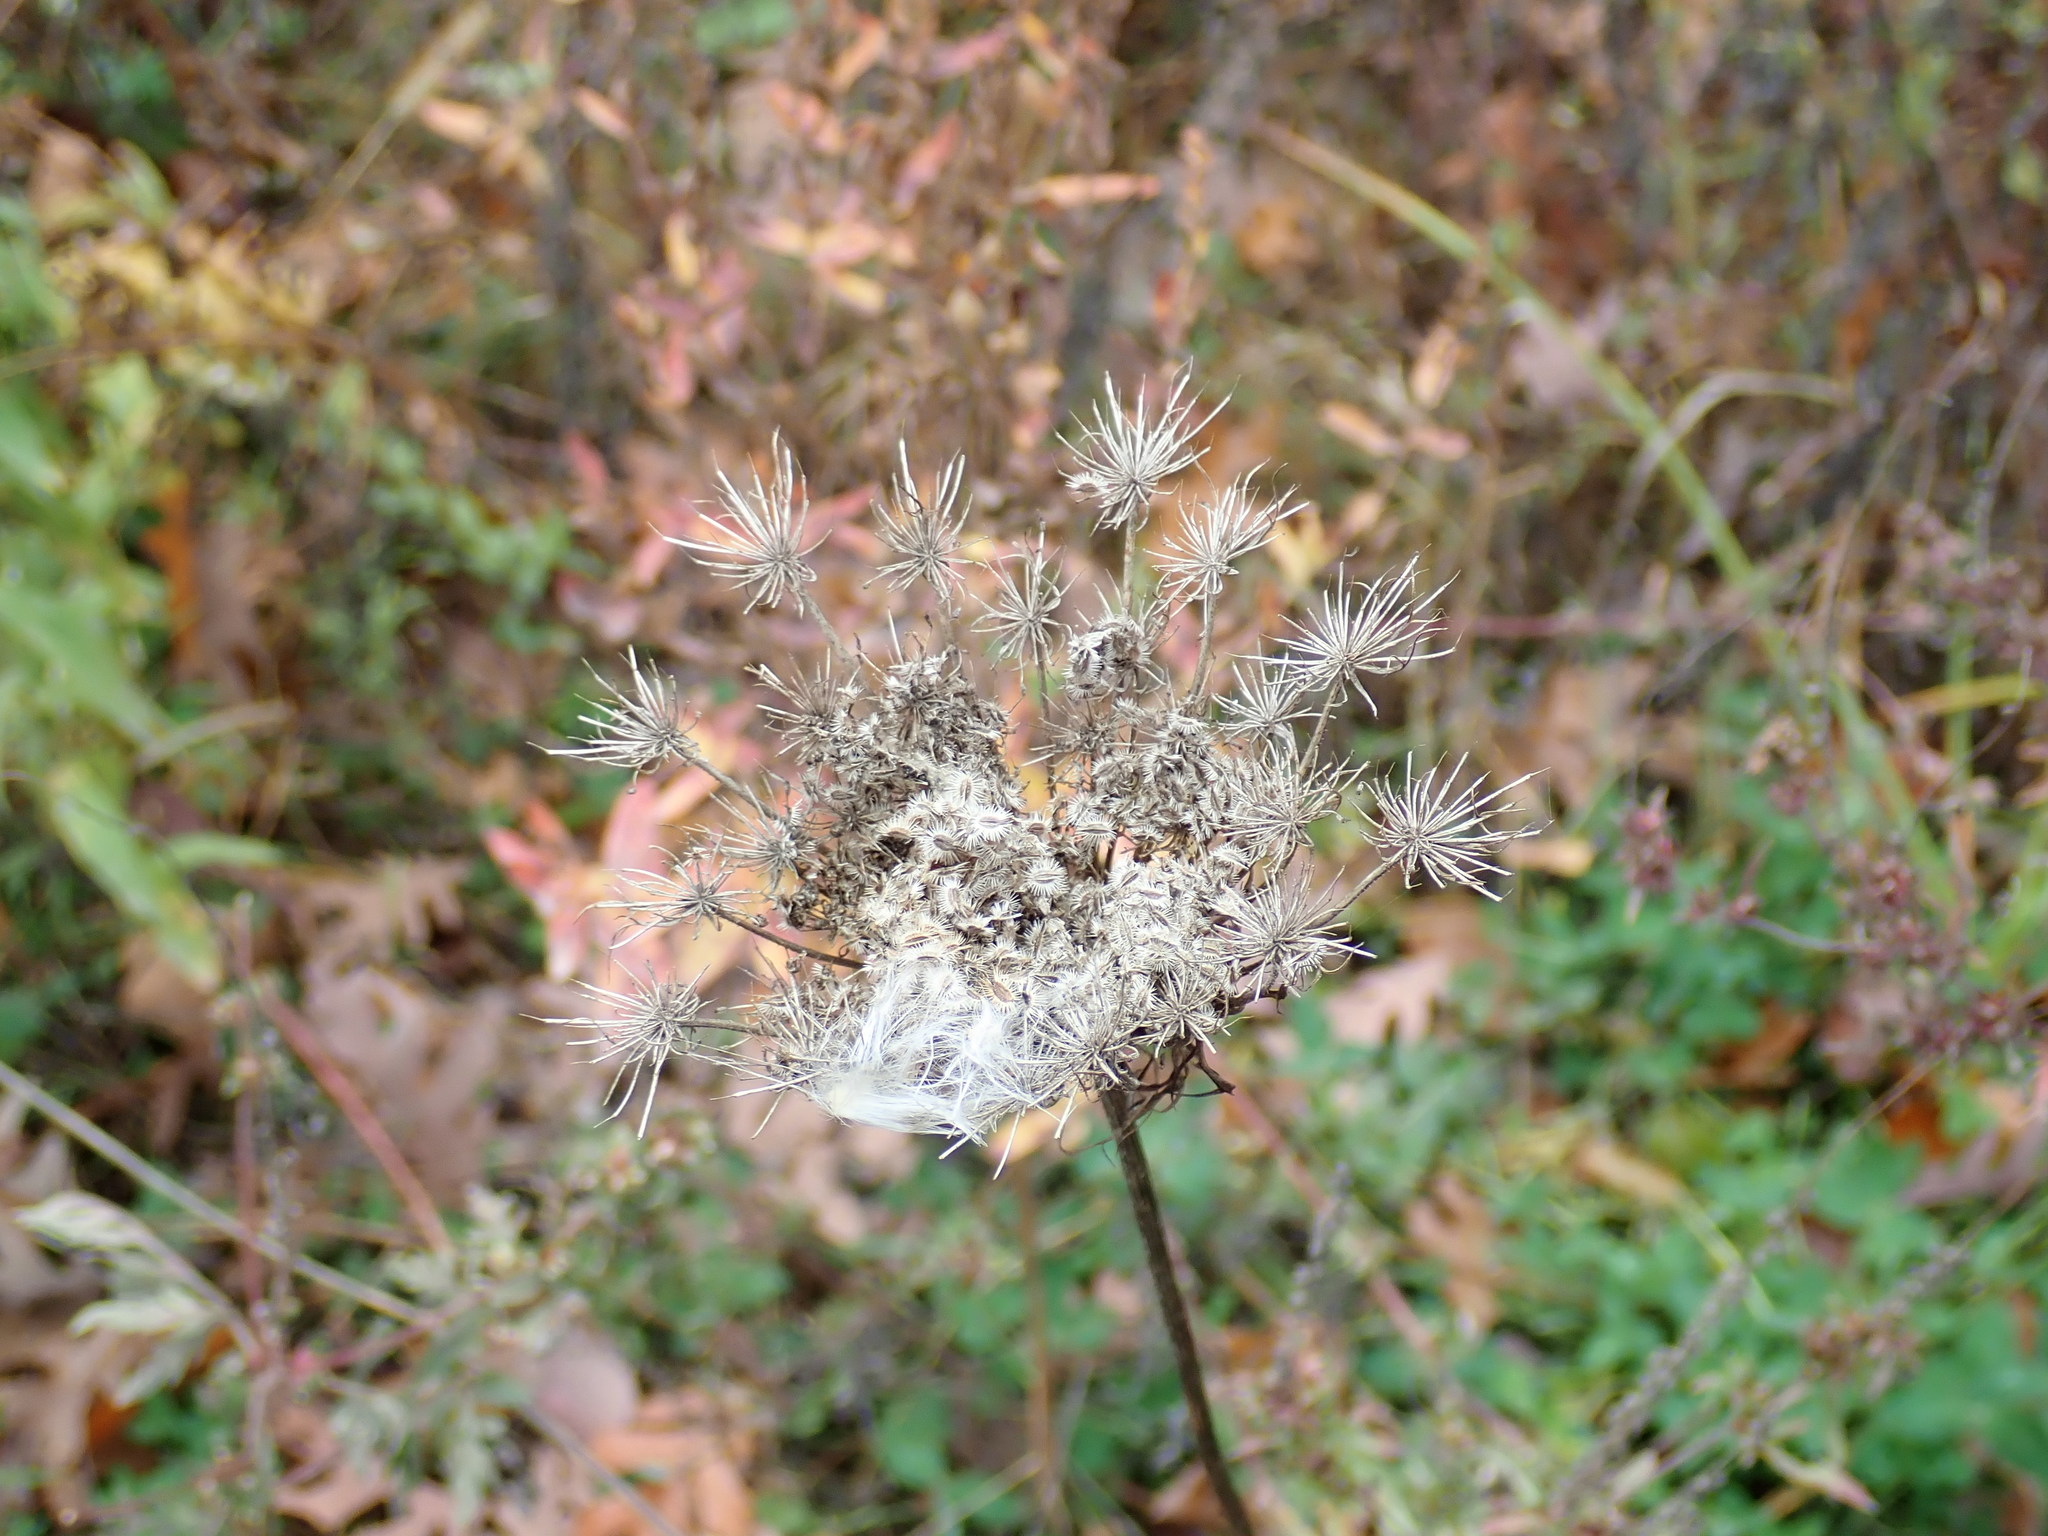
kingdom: Plantae
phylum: Tracheophyta
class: Magnoliopsida
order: Apiales
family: Apiaceae
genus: Daucus
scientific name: Daucus carota
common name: Wild carrot
